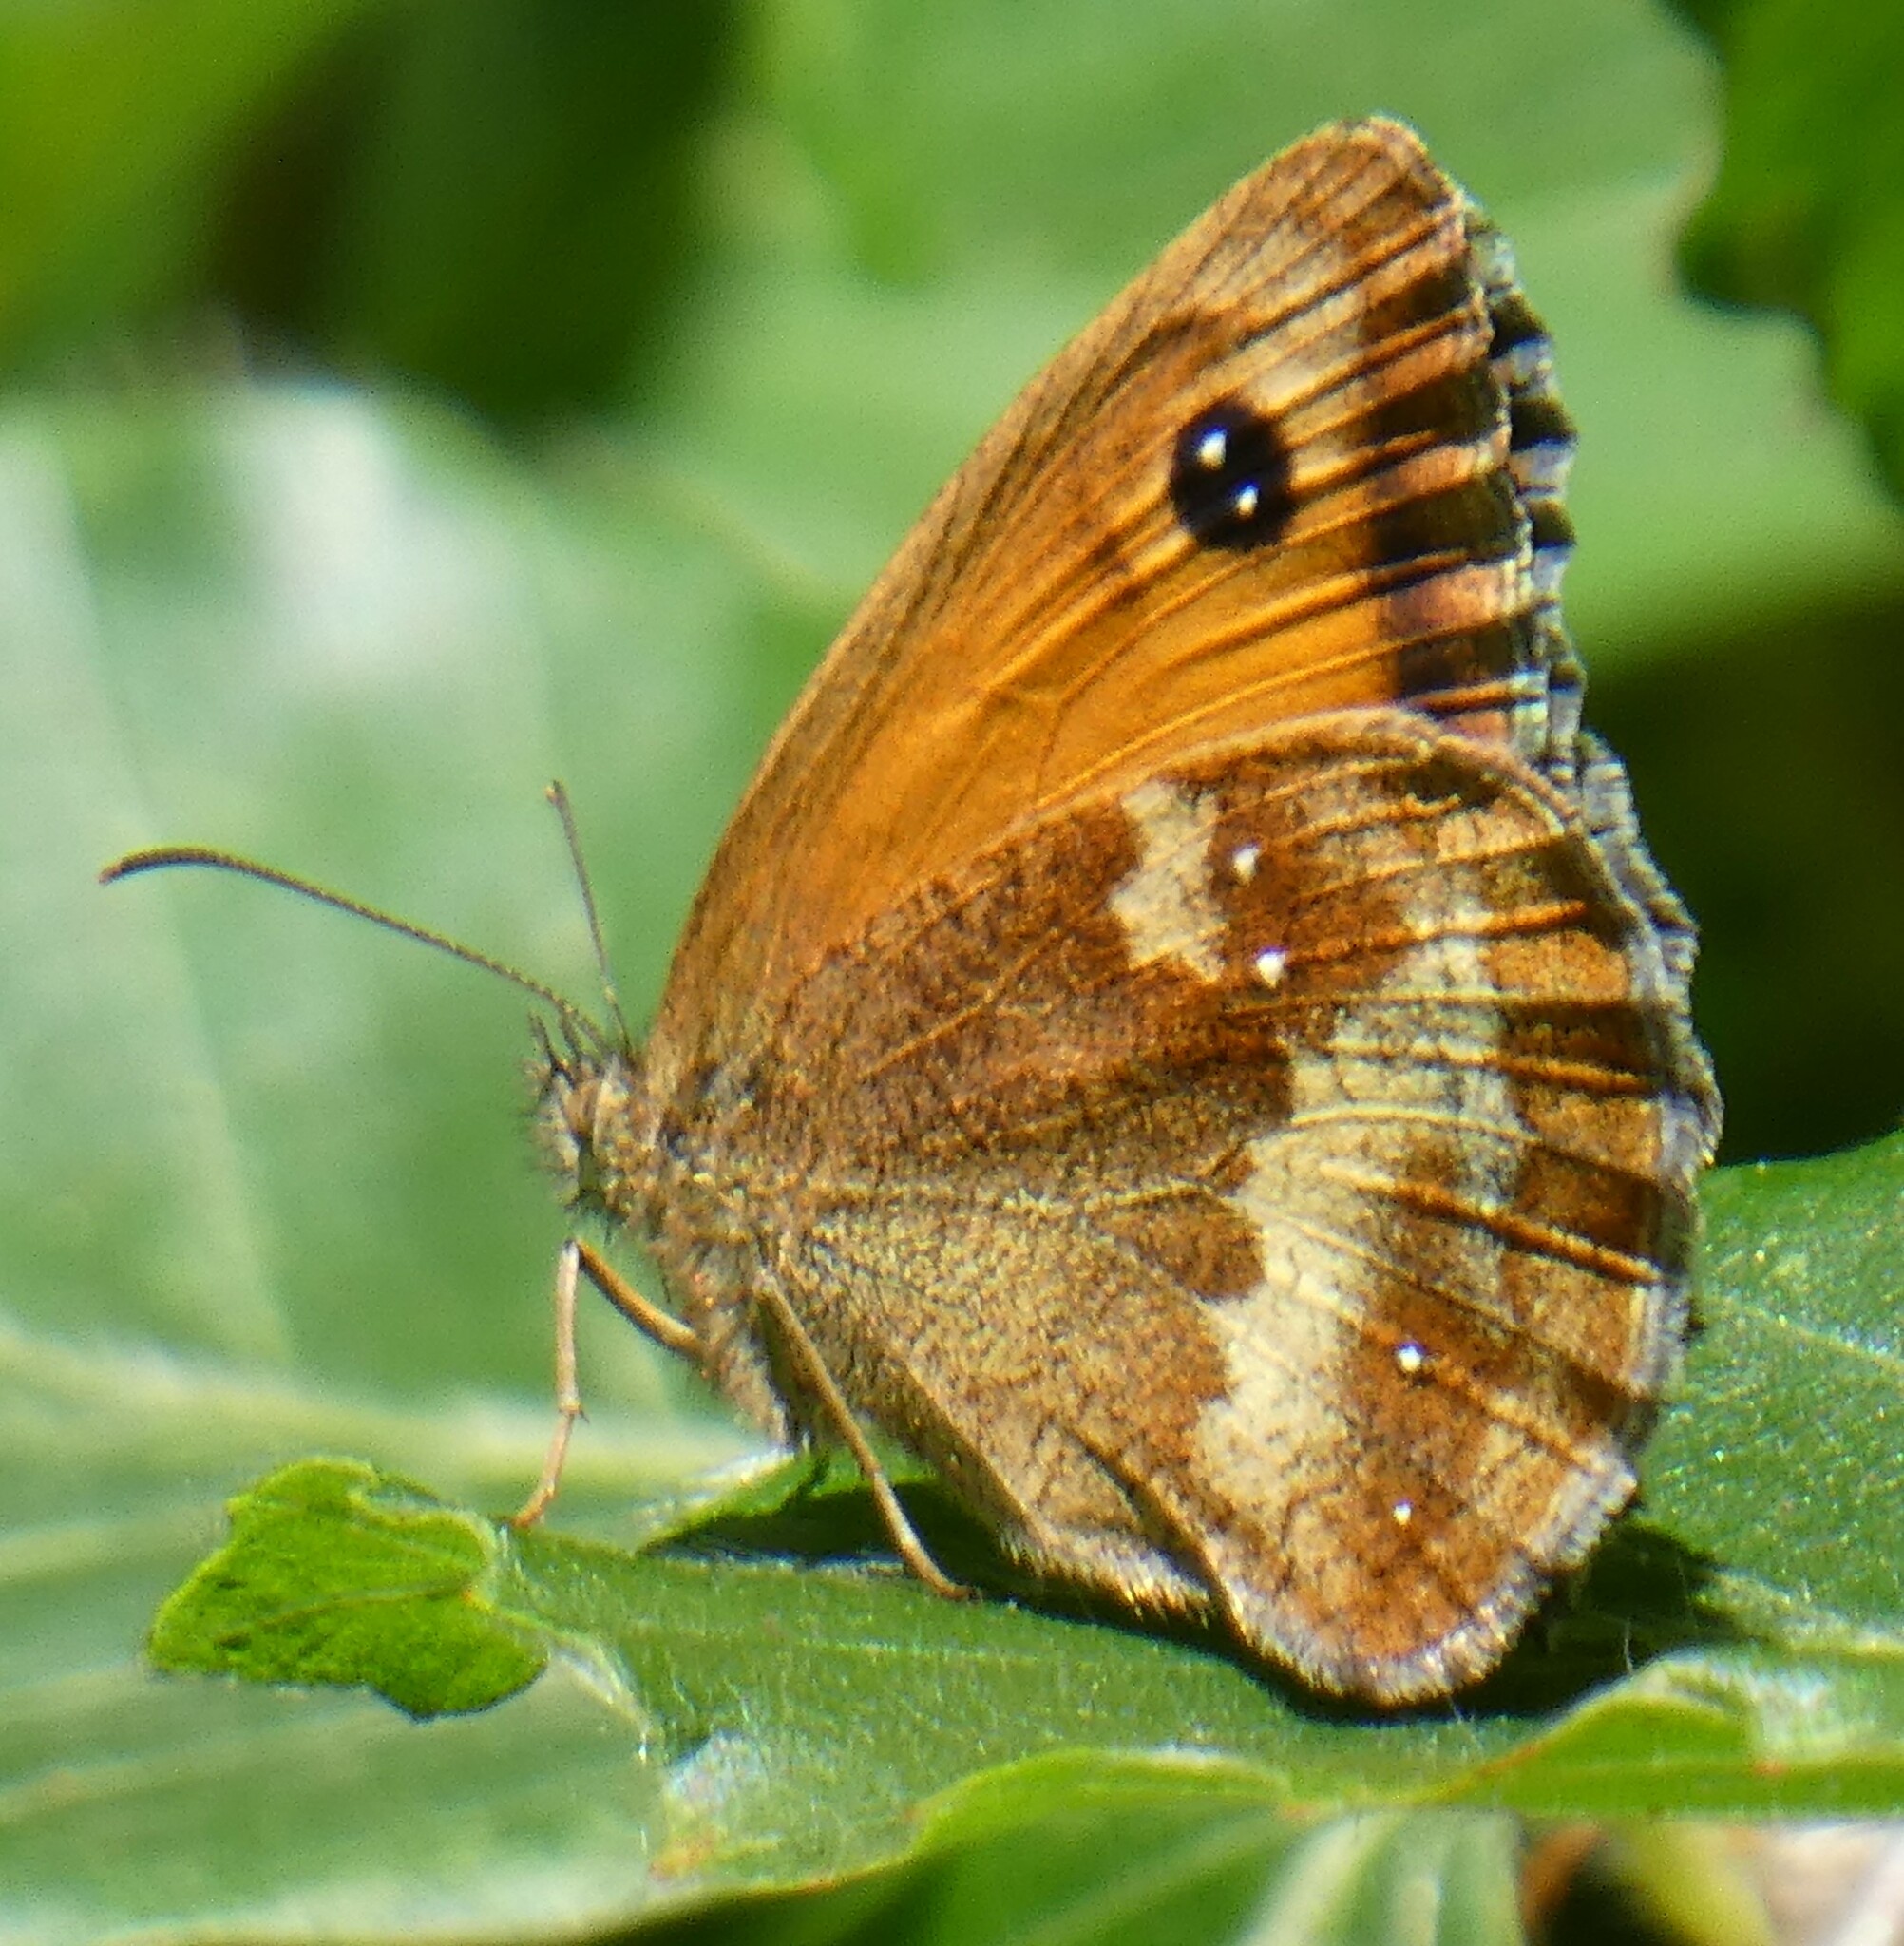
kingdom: Animalia
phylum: Arthropoda
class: Insecta
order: Lepidoptera
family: Nymphalidae
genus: Pyronia
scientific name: Pyronia tithonus
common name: Gatekeeper
